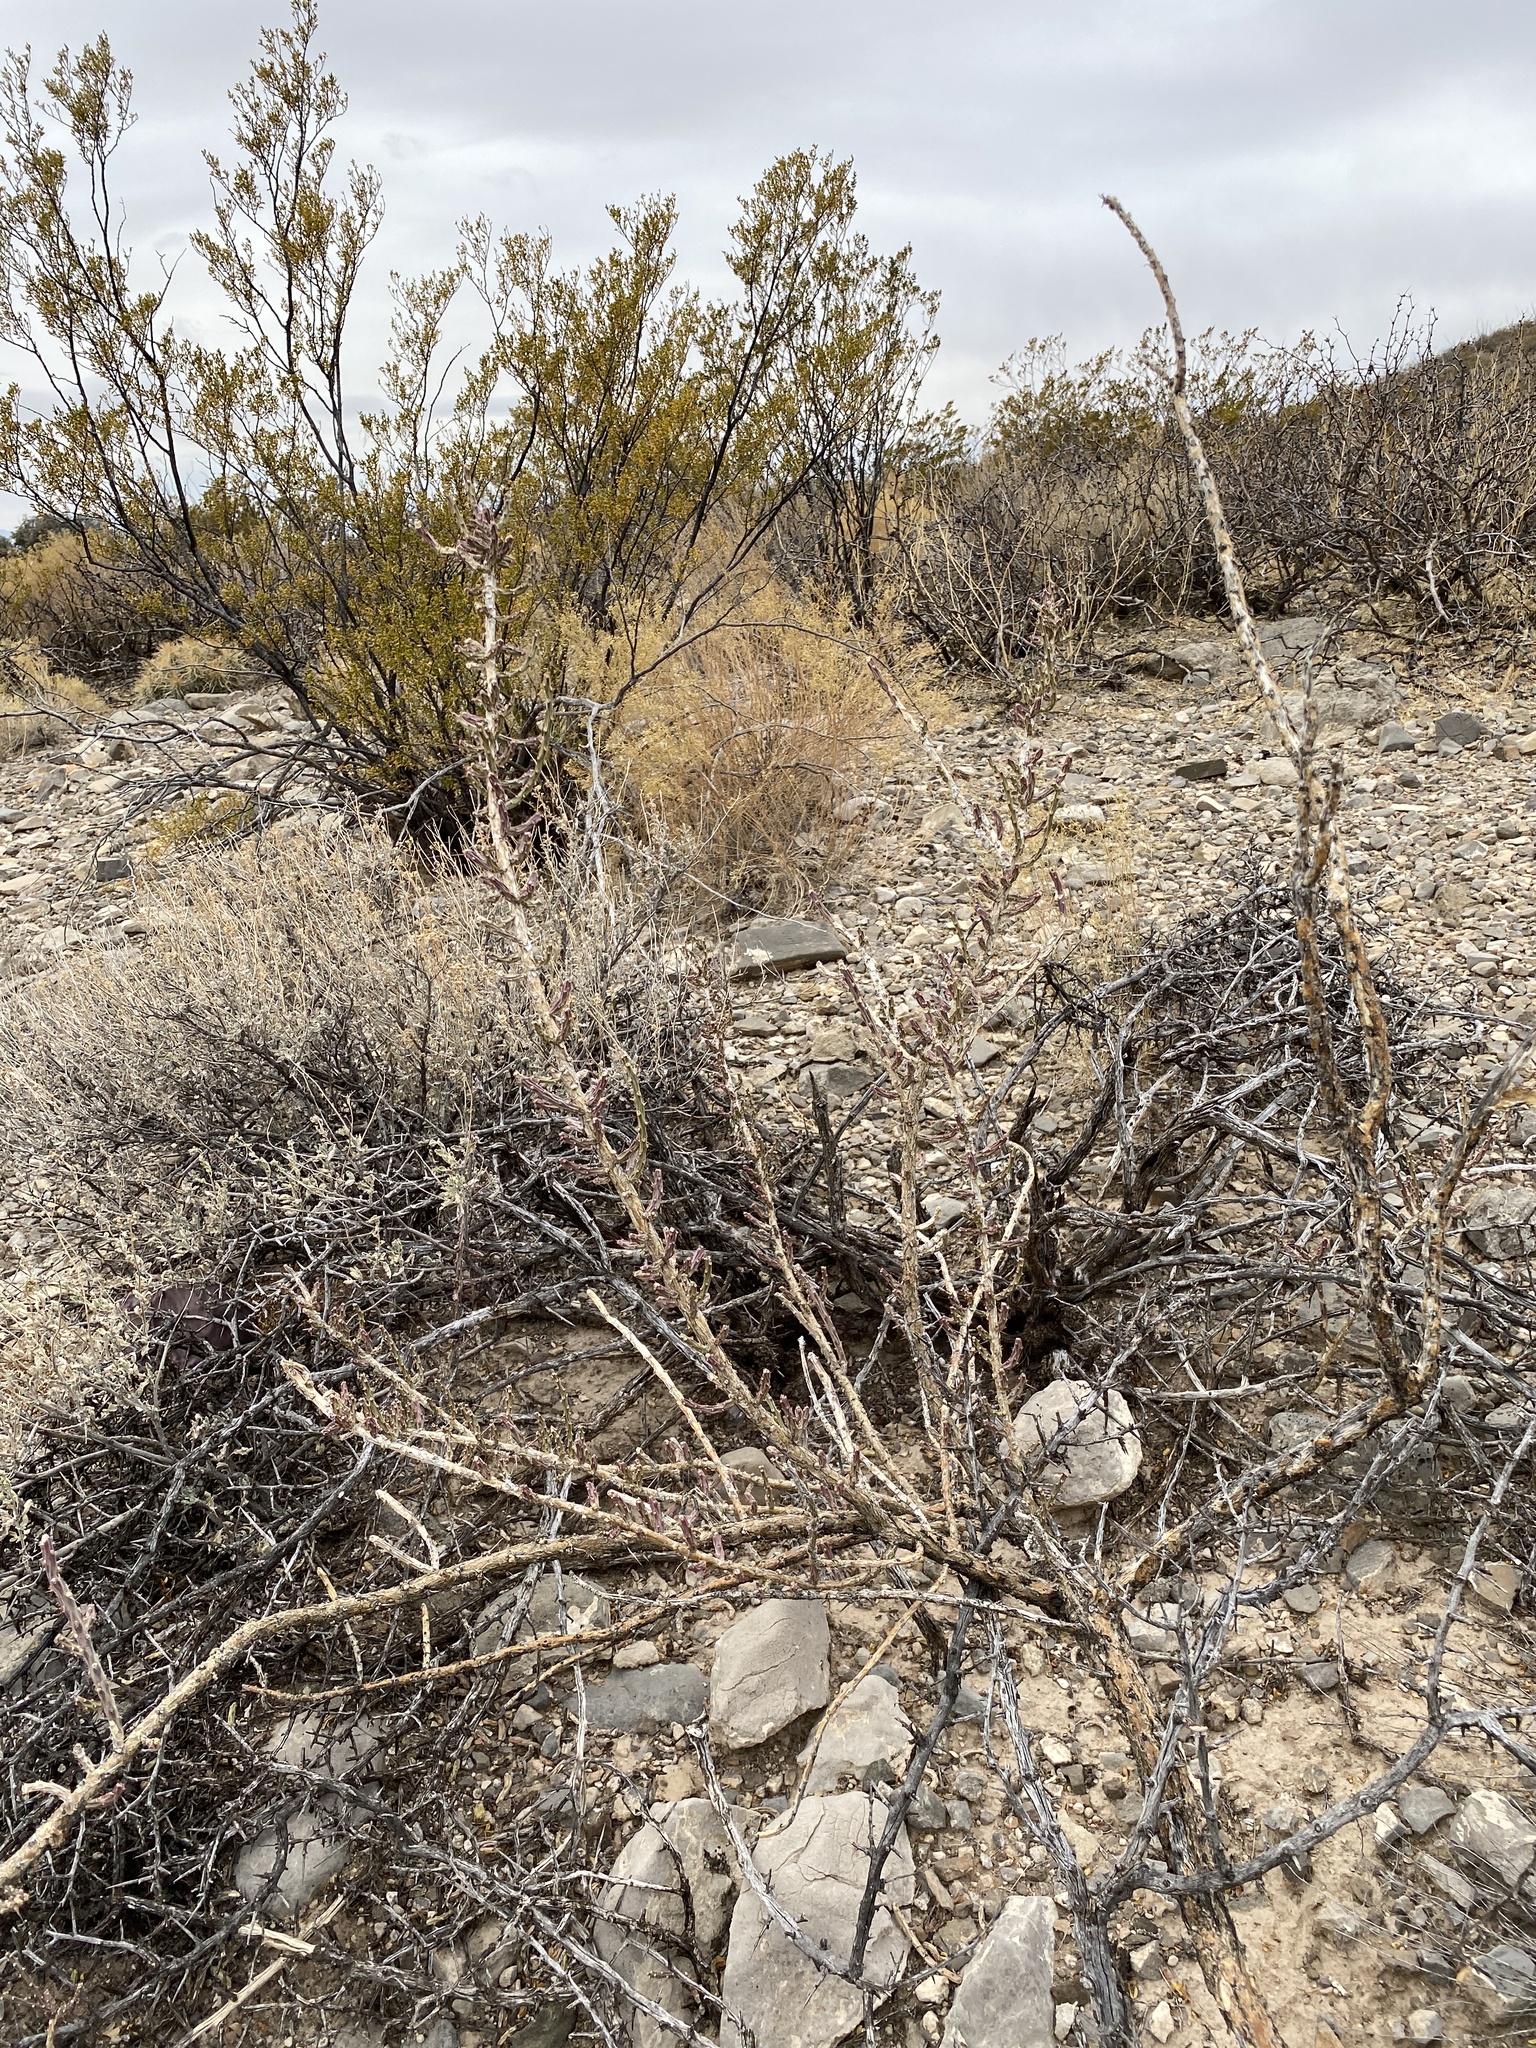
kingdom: Plantae
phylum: Tracheophyta
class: Magnoliopsida
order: Caryophyllales
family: Cactaceae
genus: Cylindropuntia
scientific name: Cylindropuntia leptocaulis
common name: Christmas cactus
